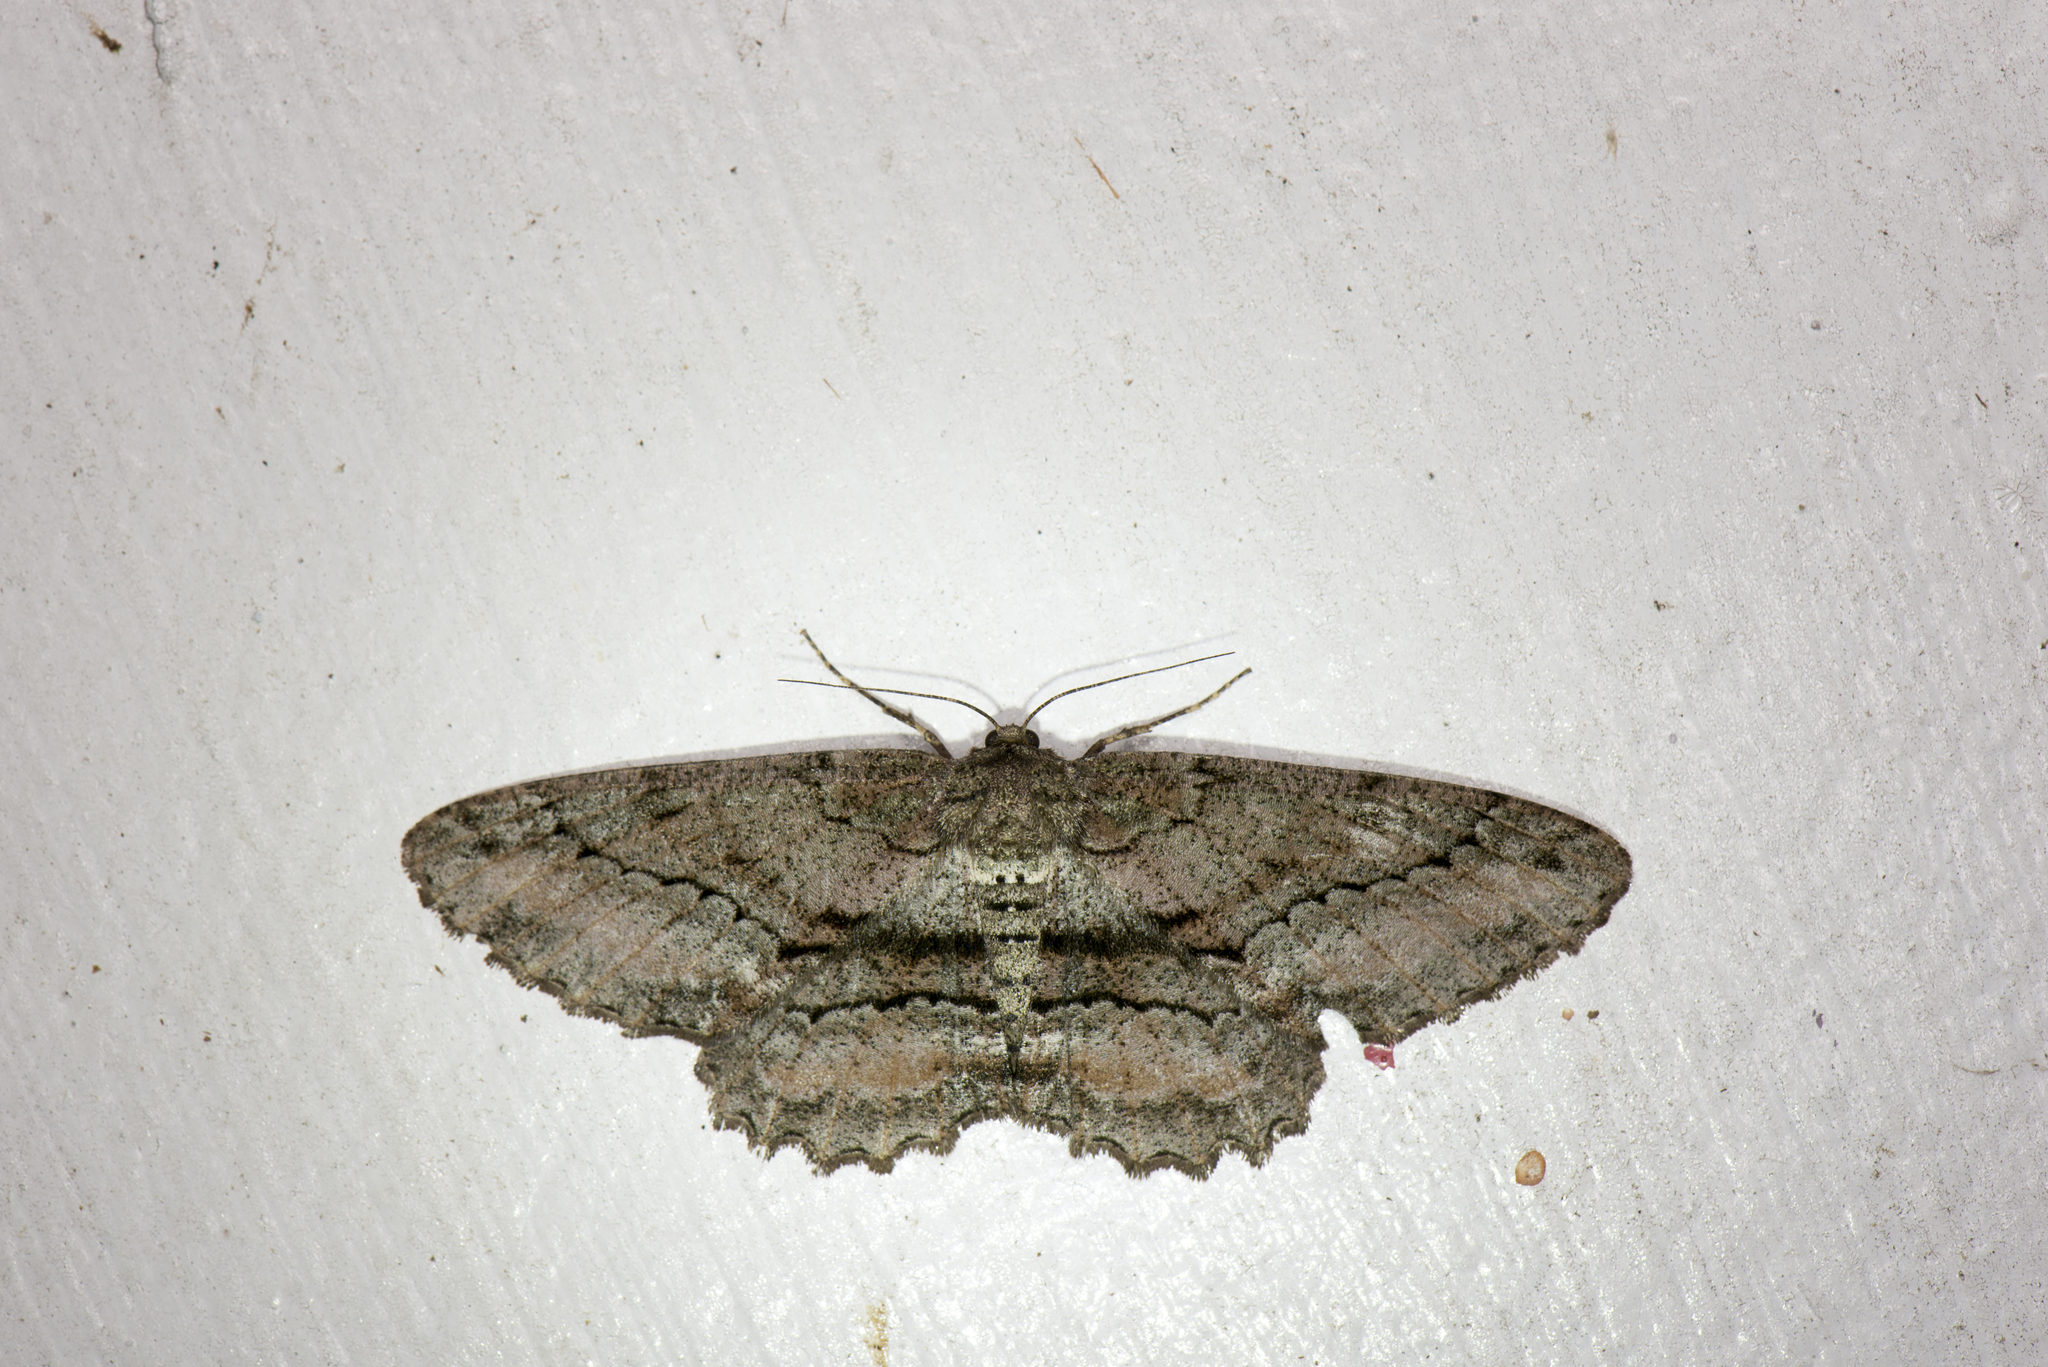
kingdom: Animalia
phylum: Arthropoda
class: Insecta
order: Lepidoptera
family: Geometridae
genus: Jankowskia
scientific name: Jankowskia taiwanensis
